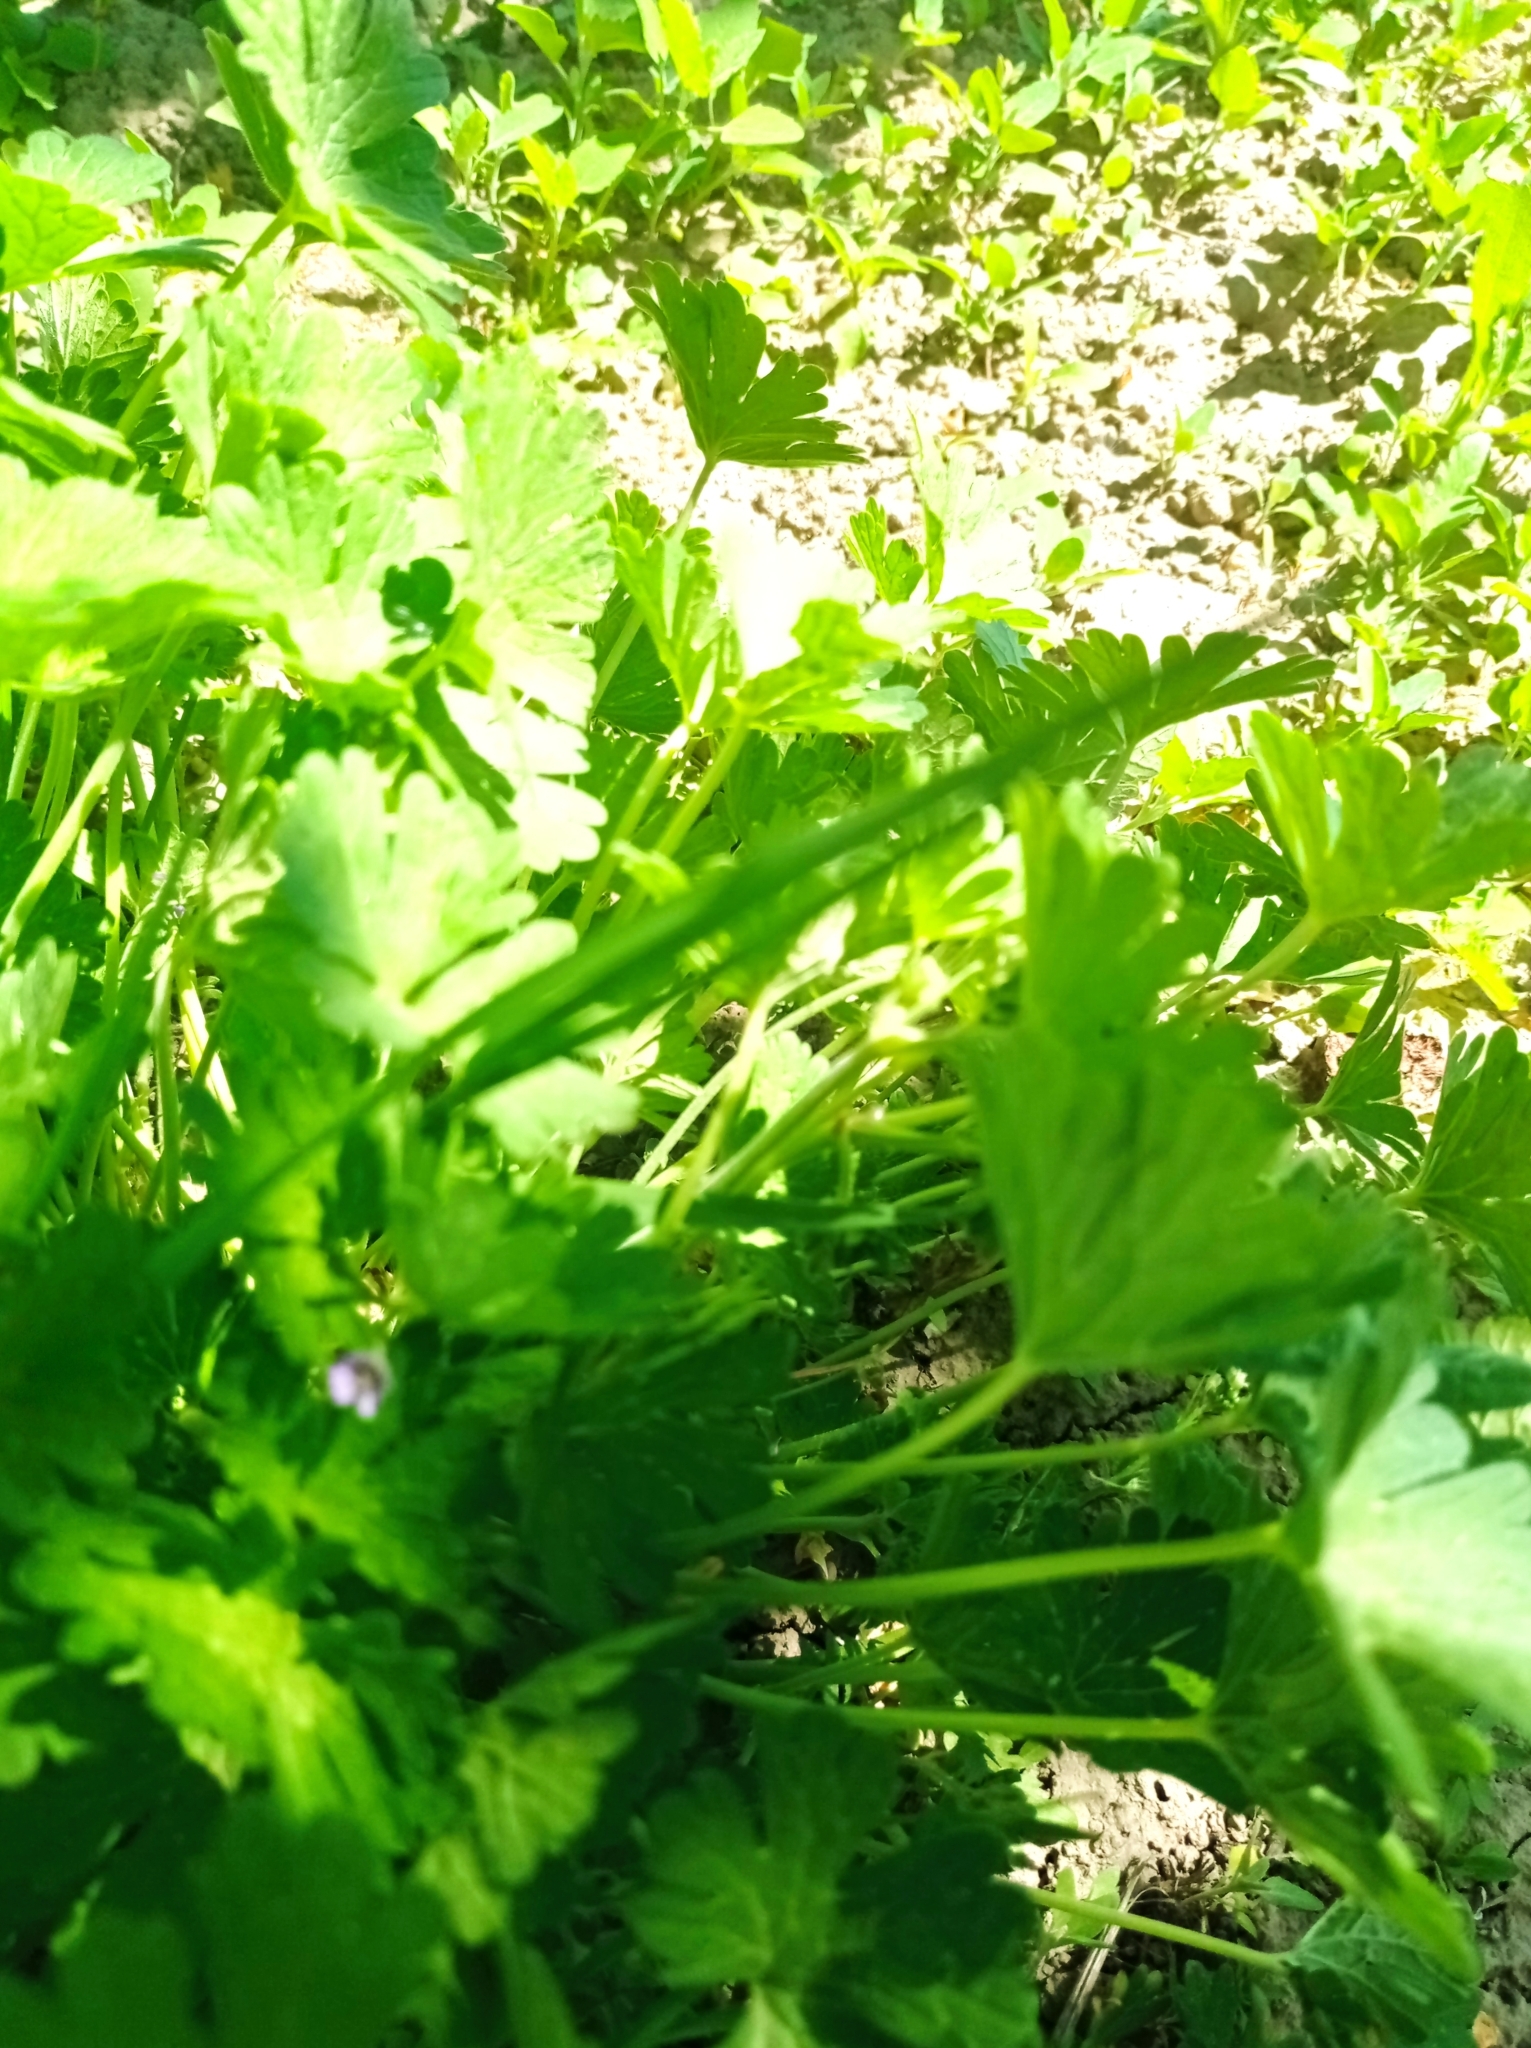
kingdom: Plantae
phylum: Tracheophyta
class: Magnoliopsida
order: Geraniales
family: Geraniaceae
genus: Geranium
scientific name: Geranium pusillum
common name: Small geranium
